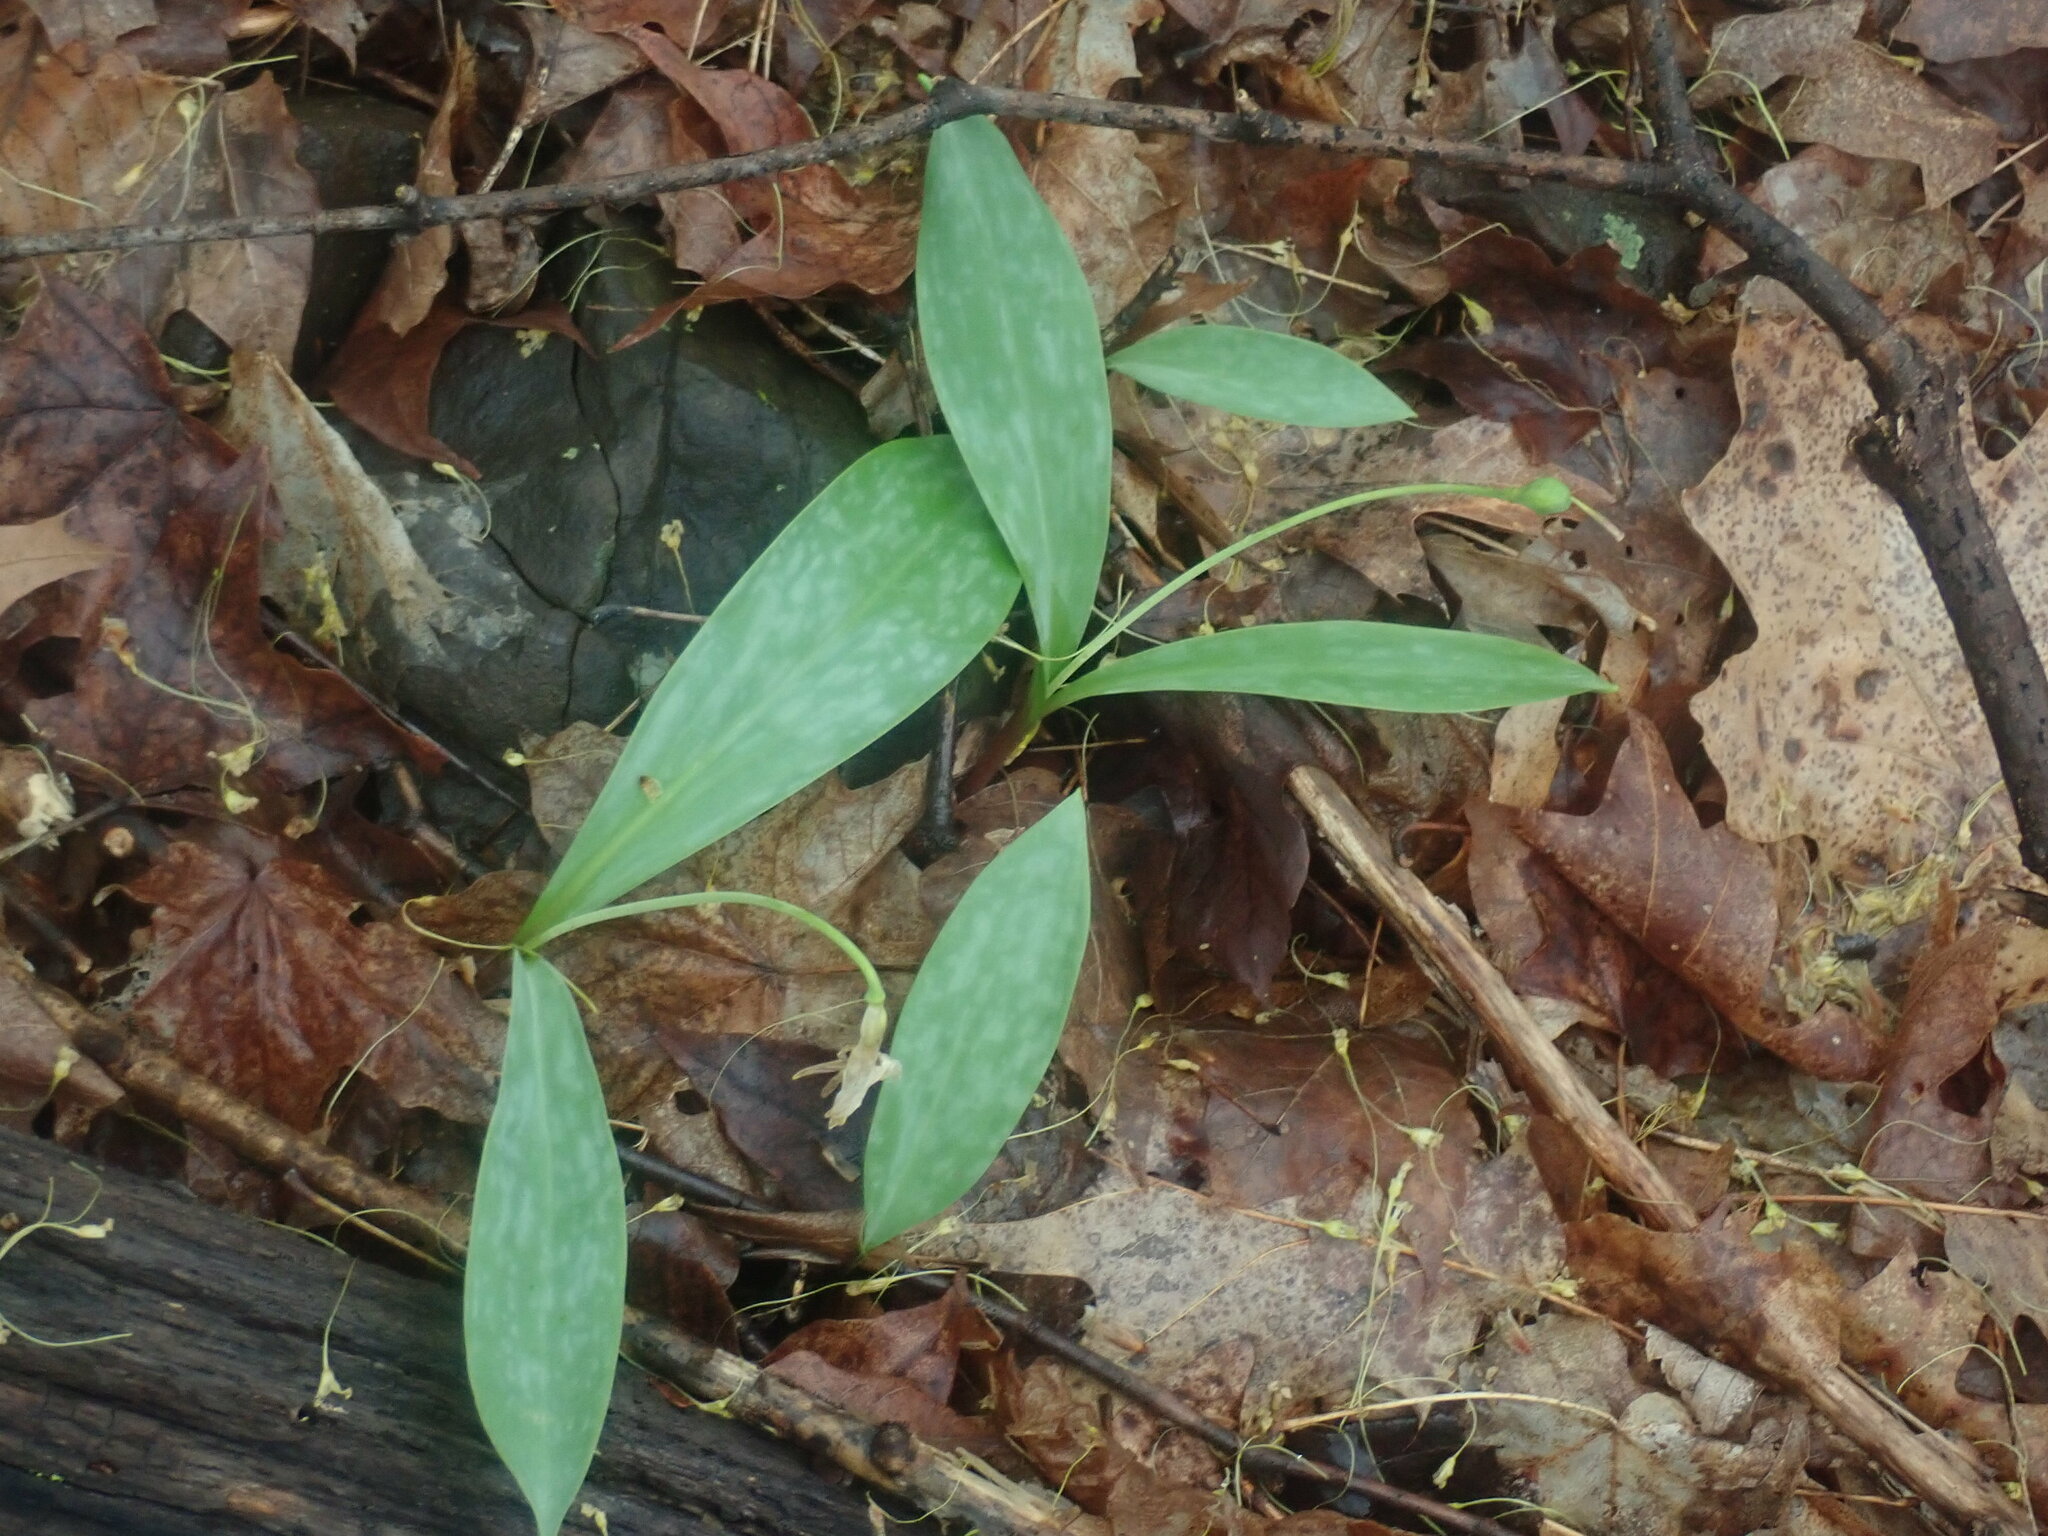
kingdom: Plantae
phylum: Tracheophyta
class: Liliopsida
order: Liliales
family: Liliaceae
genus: Erythronium
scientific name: Erythronium americanum
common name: Yellow adder's-tongue
